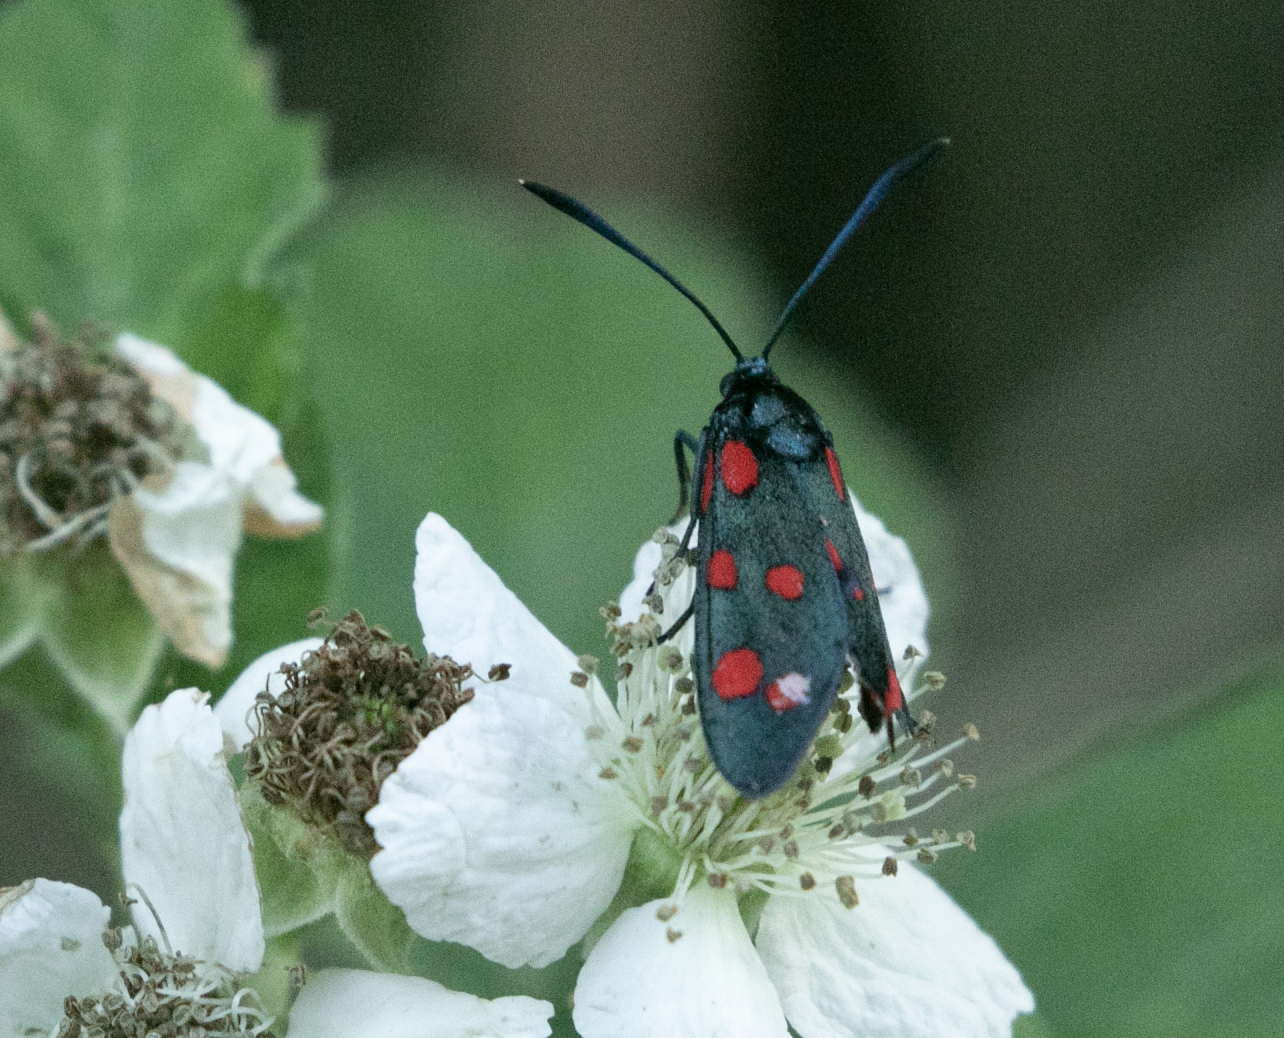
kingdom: Animalia
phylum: Arthropoda
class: Insecta
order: Lepidoptera
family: Zygaenidae
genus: Zygaena
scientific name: Zygaena transalpina
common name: Southern six spot burnet
